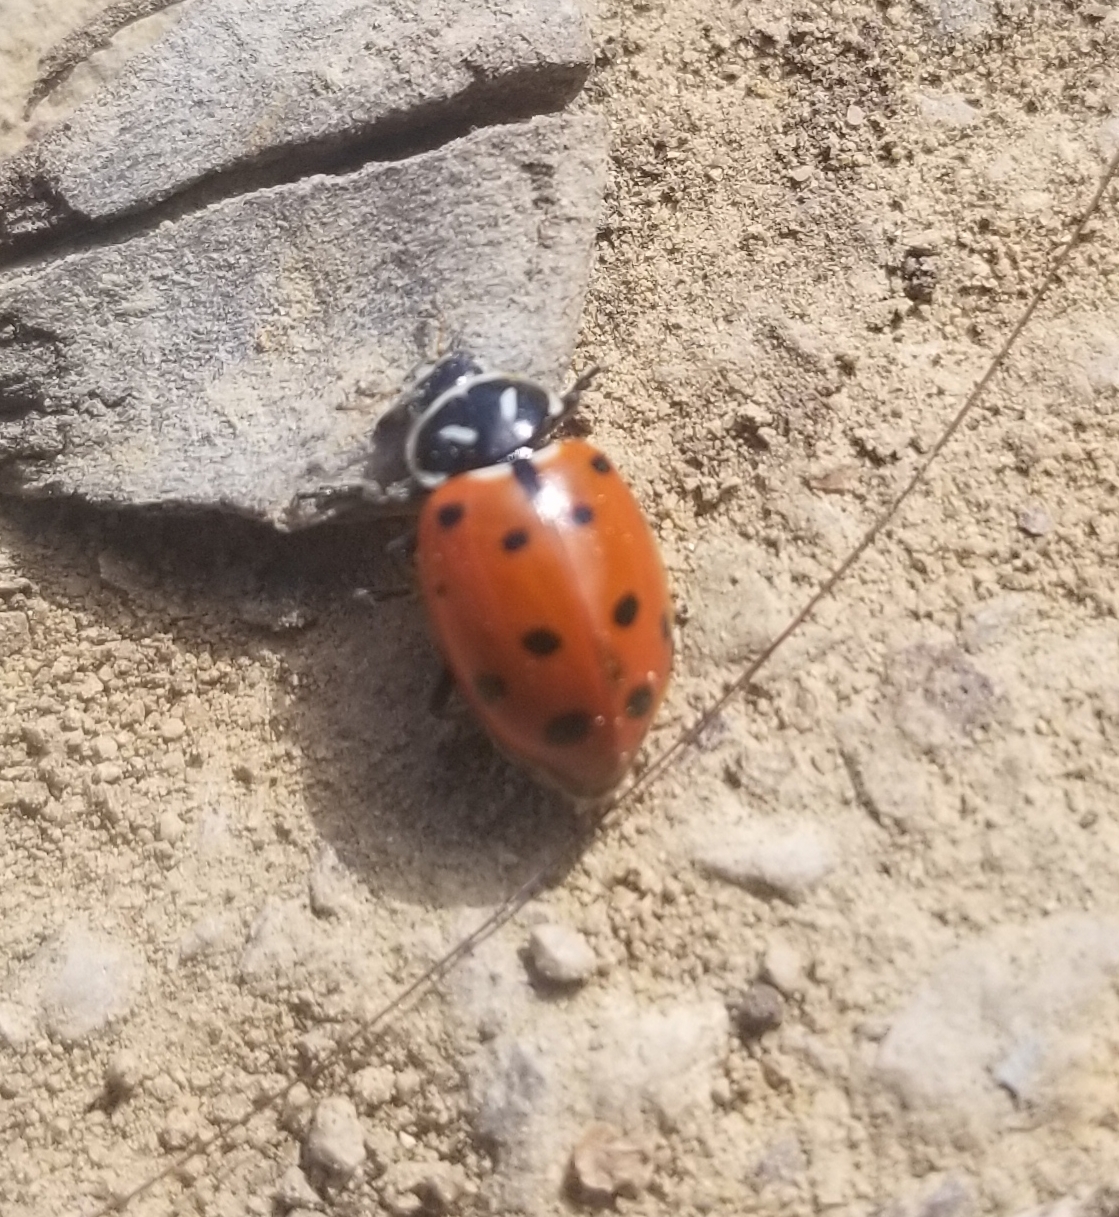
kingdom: Animalia
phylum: Arthropoda
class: Insecta
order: Coleoptera
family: Coccinellidae
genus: Hippodamia
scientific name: Hippodamia convergens
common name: Convergent lady beetle
